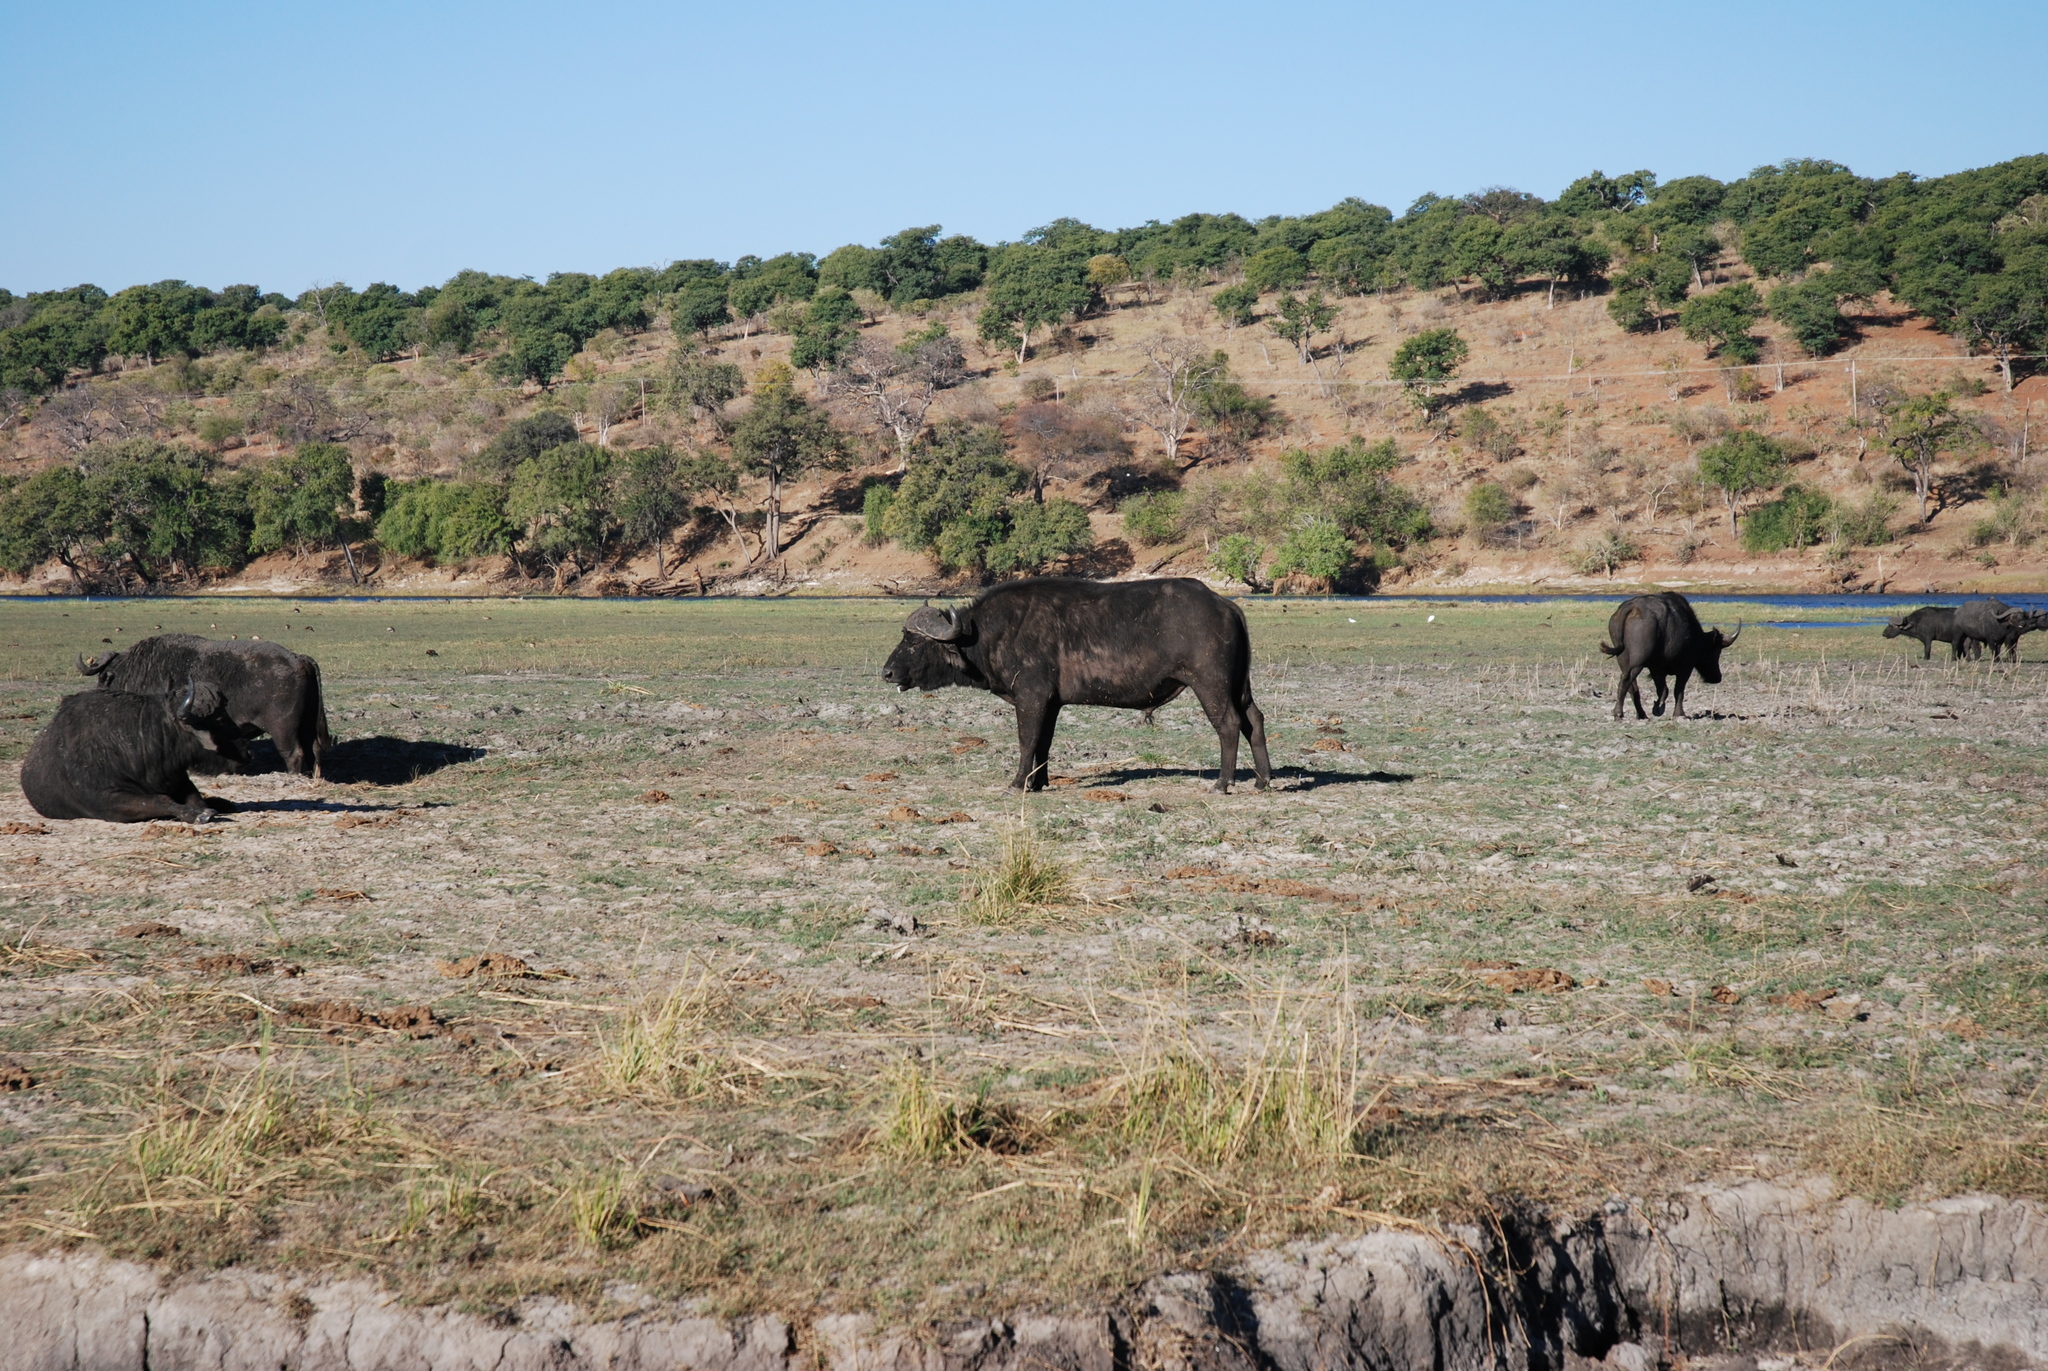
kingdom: Animalia
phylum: Chordata
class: Mammalia
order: Artiodactyla
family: Bovidae
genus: Syncerus
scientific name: Syncerus caffer
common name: African buffalo
